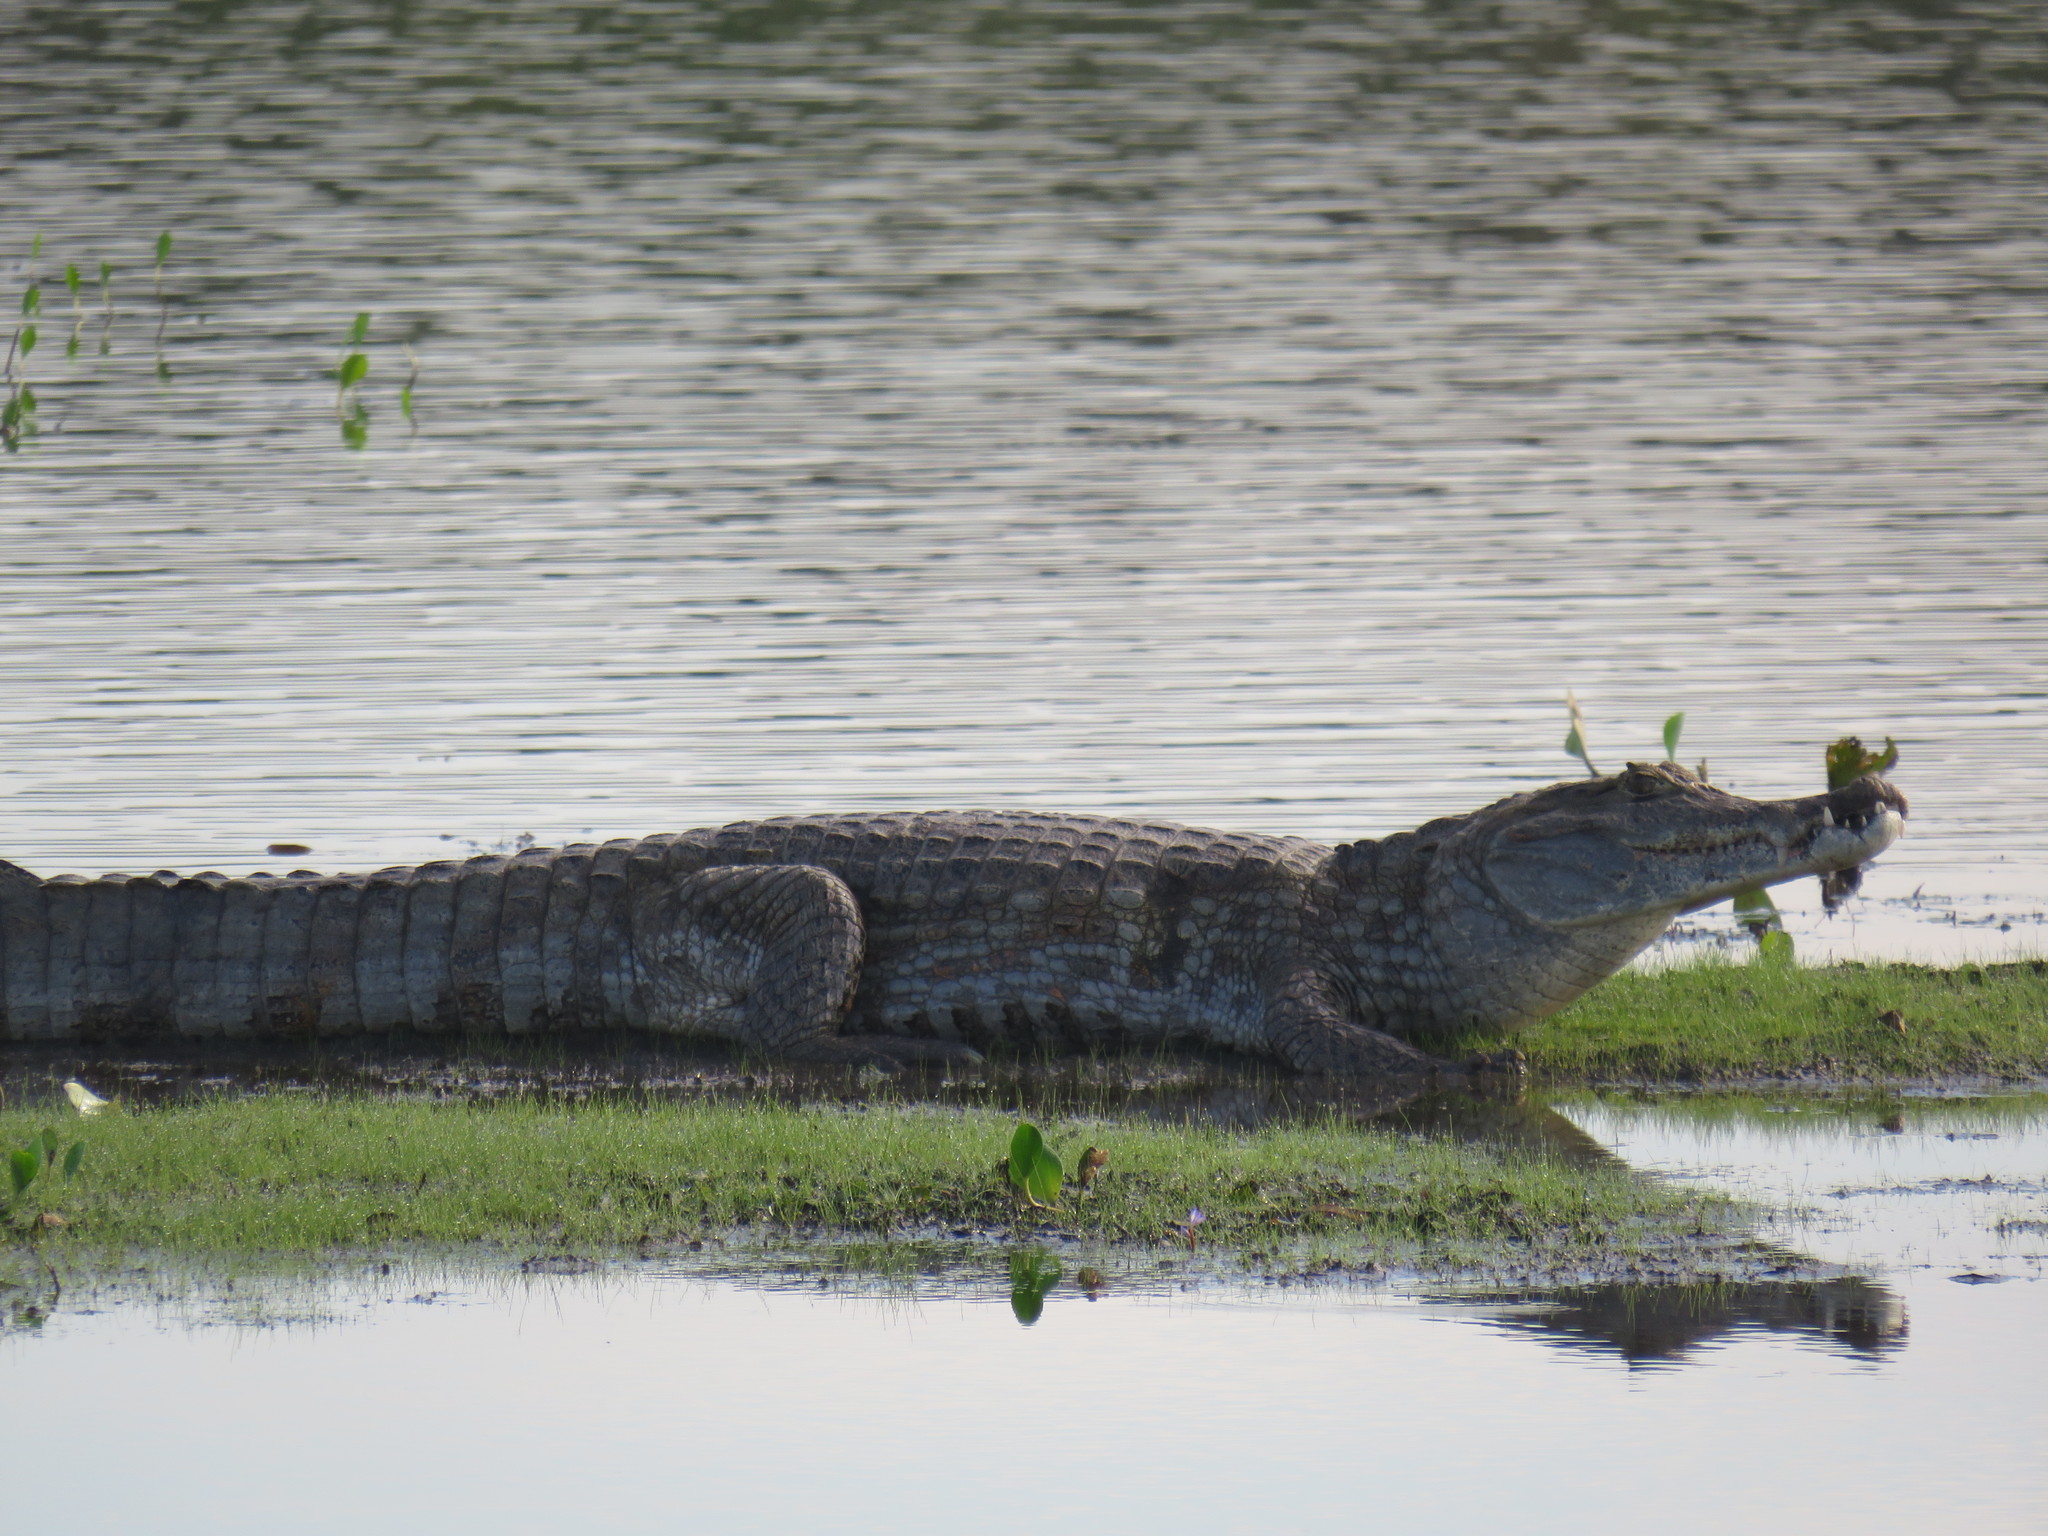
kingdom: Animalia
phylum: Chordata
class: Crocodylia
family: Alligatoridae
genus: Caiman
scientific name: Caiman crocodilus
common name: Common caiman
